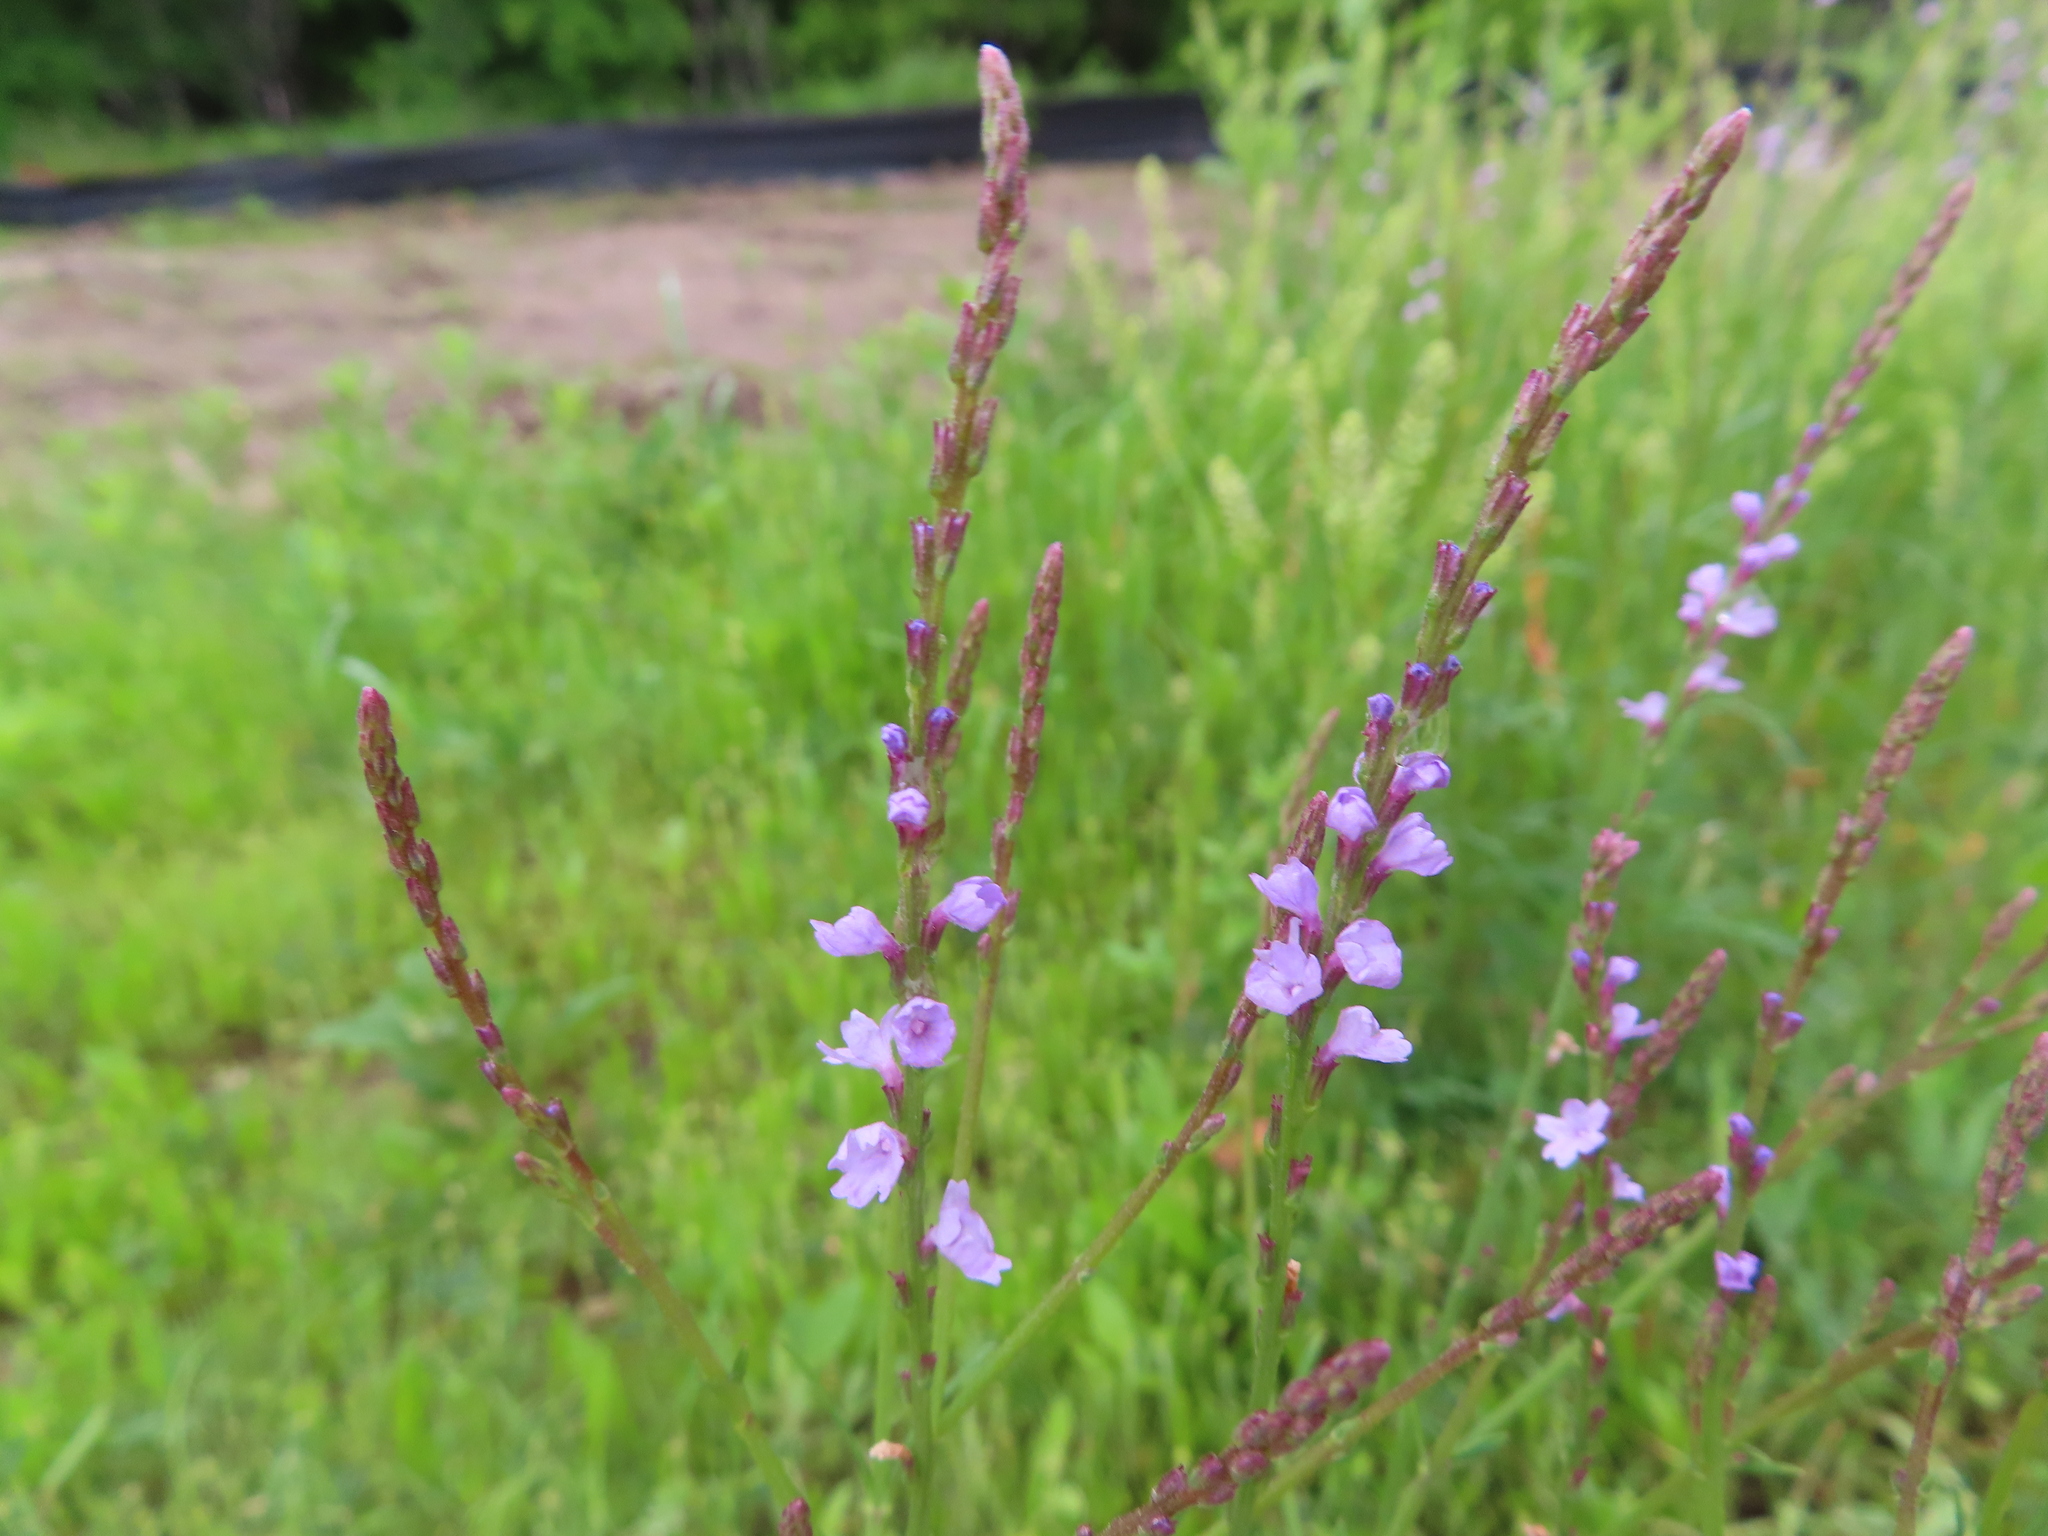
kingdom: Plantae
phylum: Tracheophyta
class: Magnoliopsida
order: Lamiales
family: Verbenaceae
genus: Verbena
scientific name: Verbena halei
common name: Texas vervain
